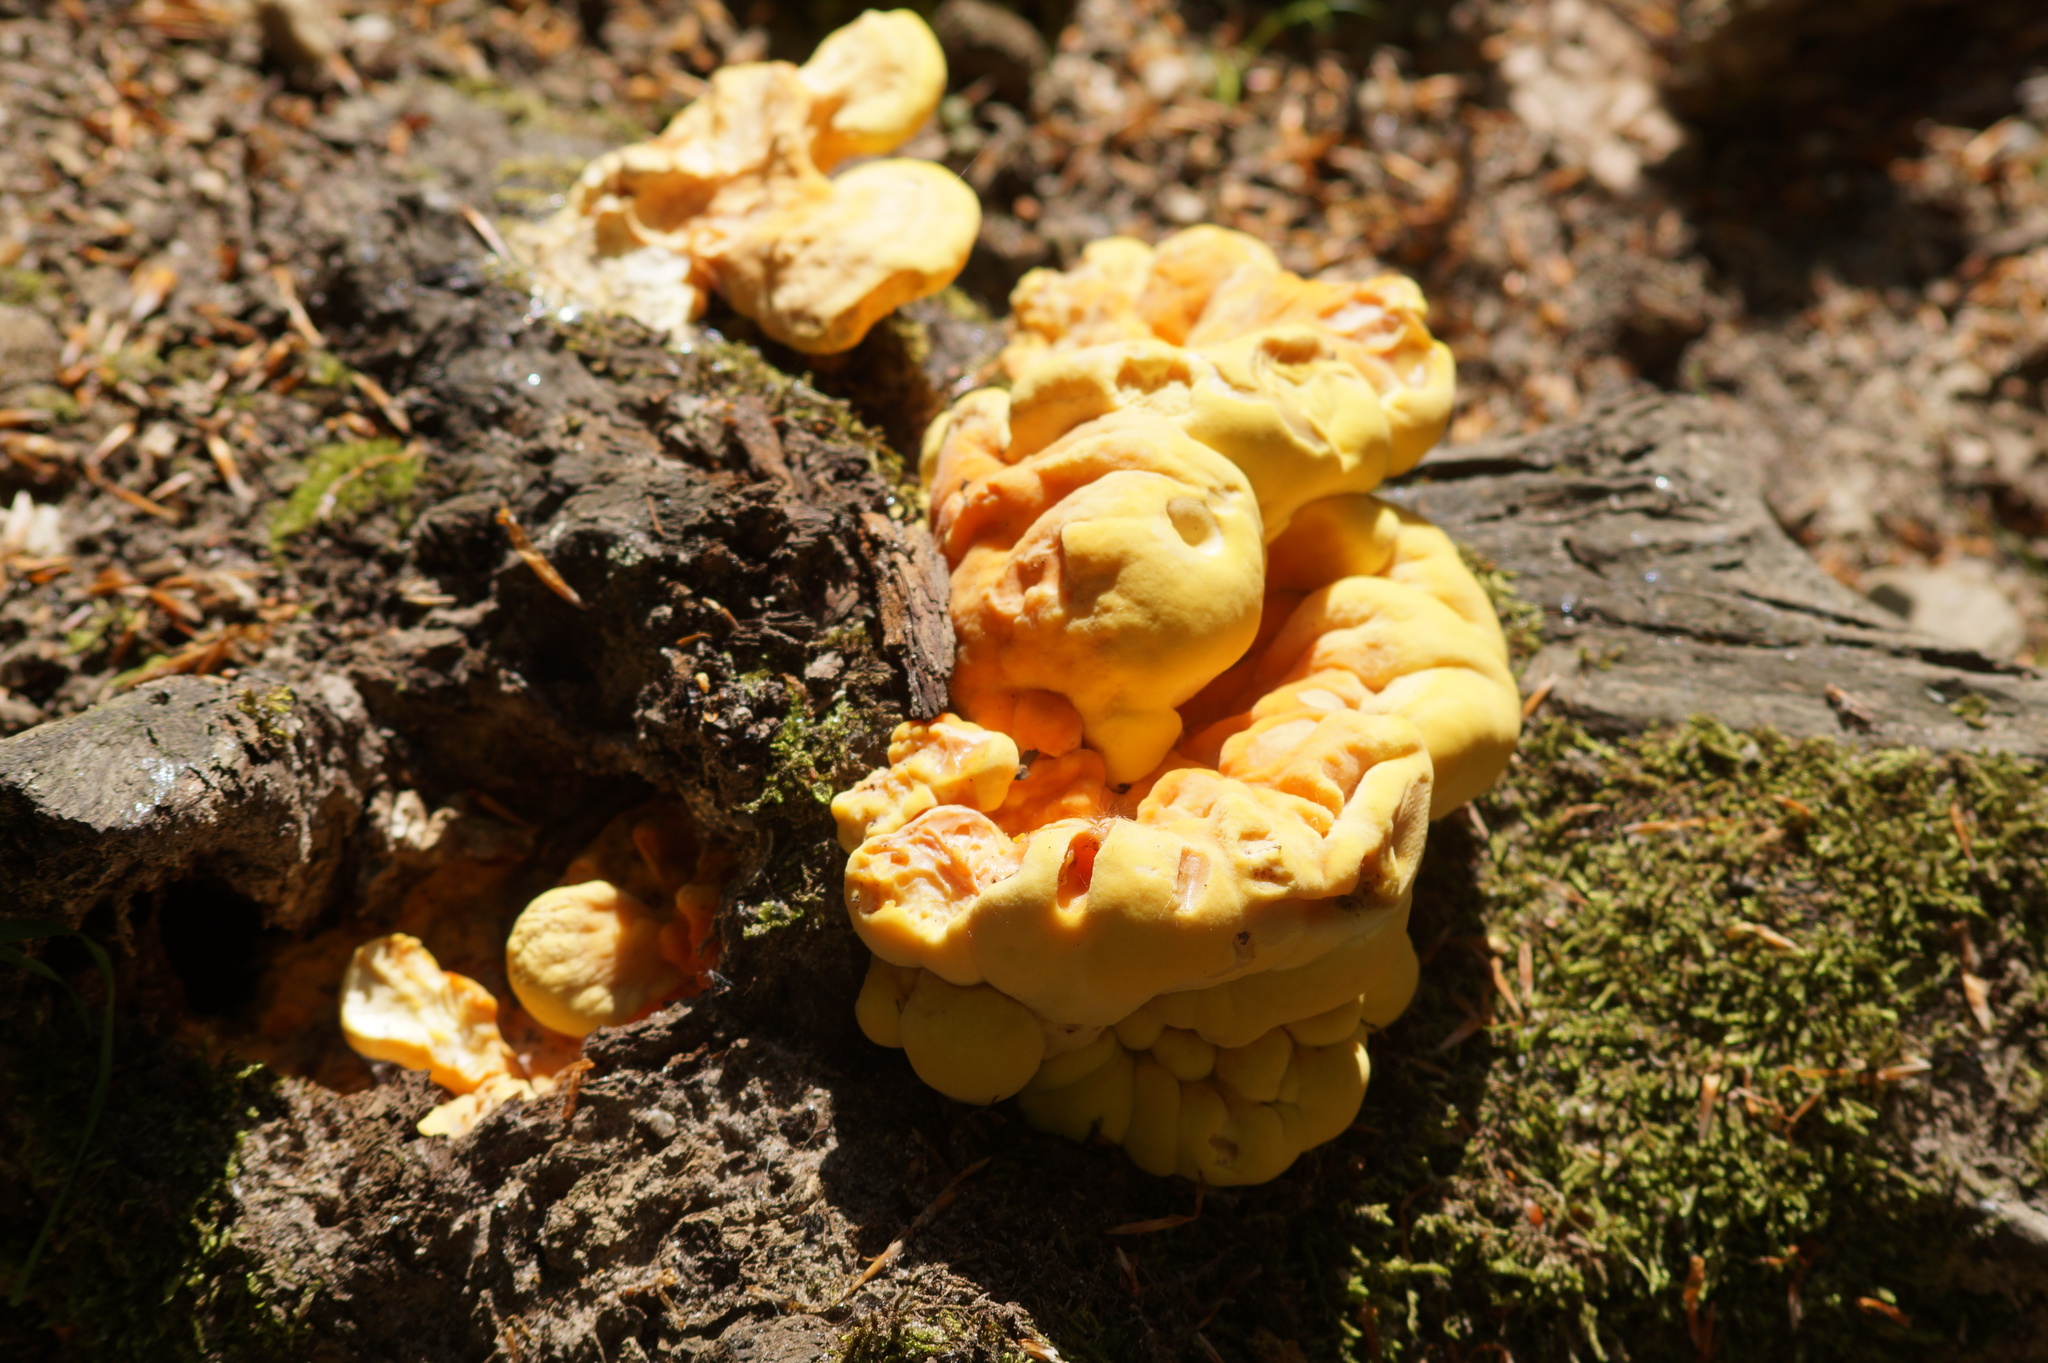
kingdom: Fungi
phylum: Basidiomycota
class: Agaricomycetes
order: Polyporales
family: Laetiporaceae
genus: Laetiporus
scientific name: Laetiporus sulphureus
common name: Chicken of the woods
